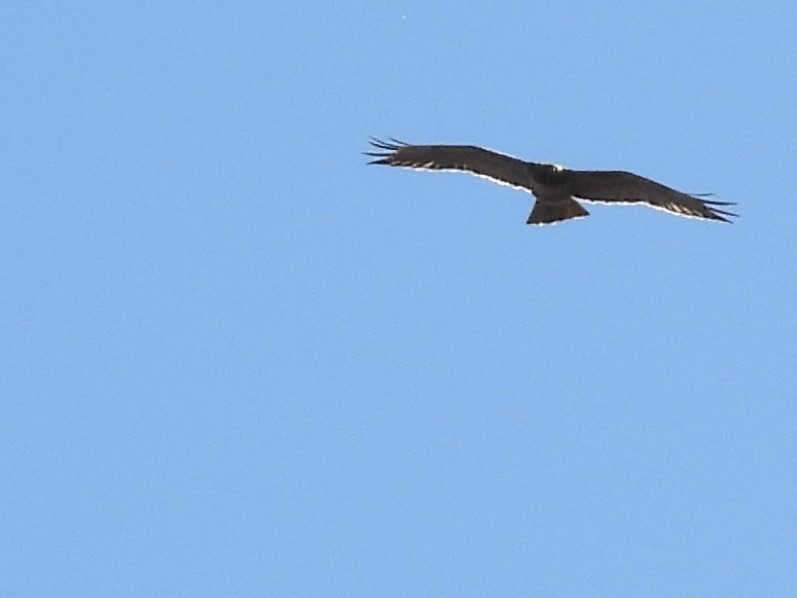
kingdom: Animalia
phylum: Chordata
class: Aves
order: Accipitriformes
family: Accipitridae
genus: Buteo
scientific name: Buteo jamaicensis
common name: Red-tailed hawk
